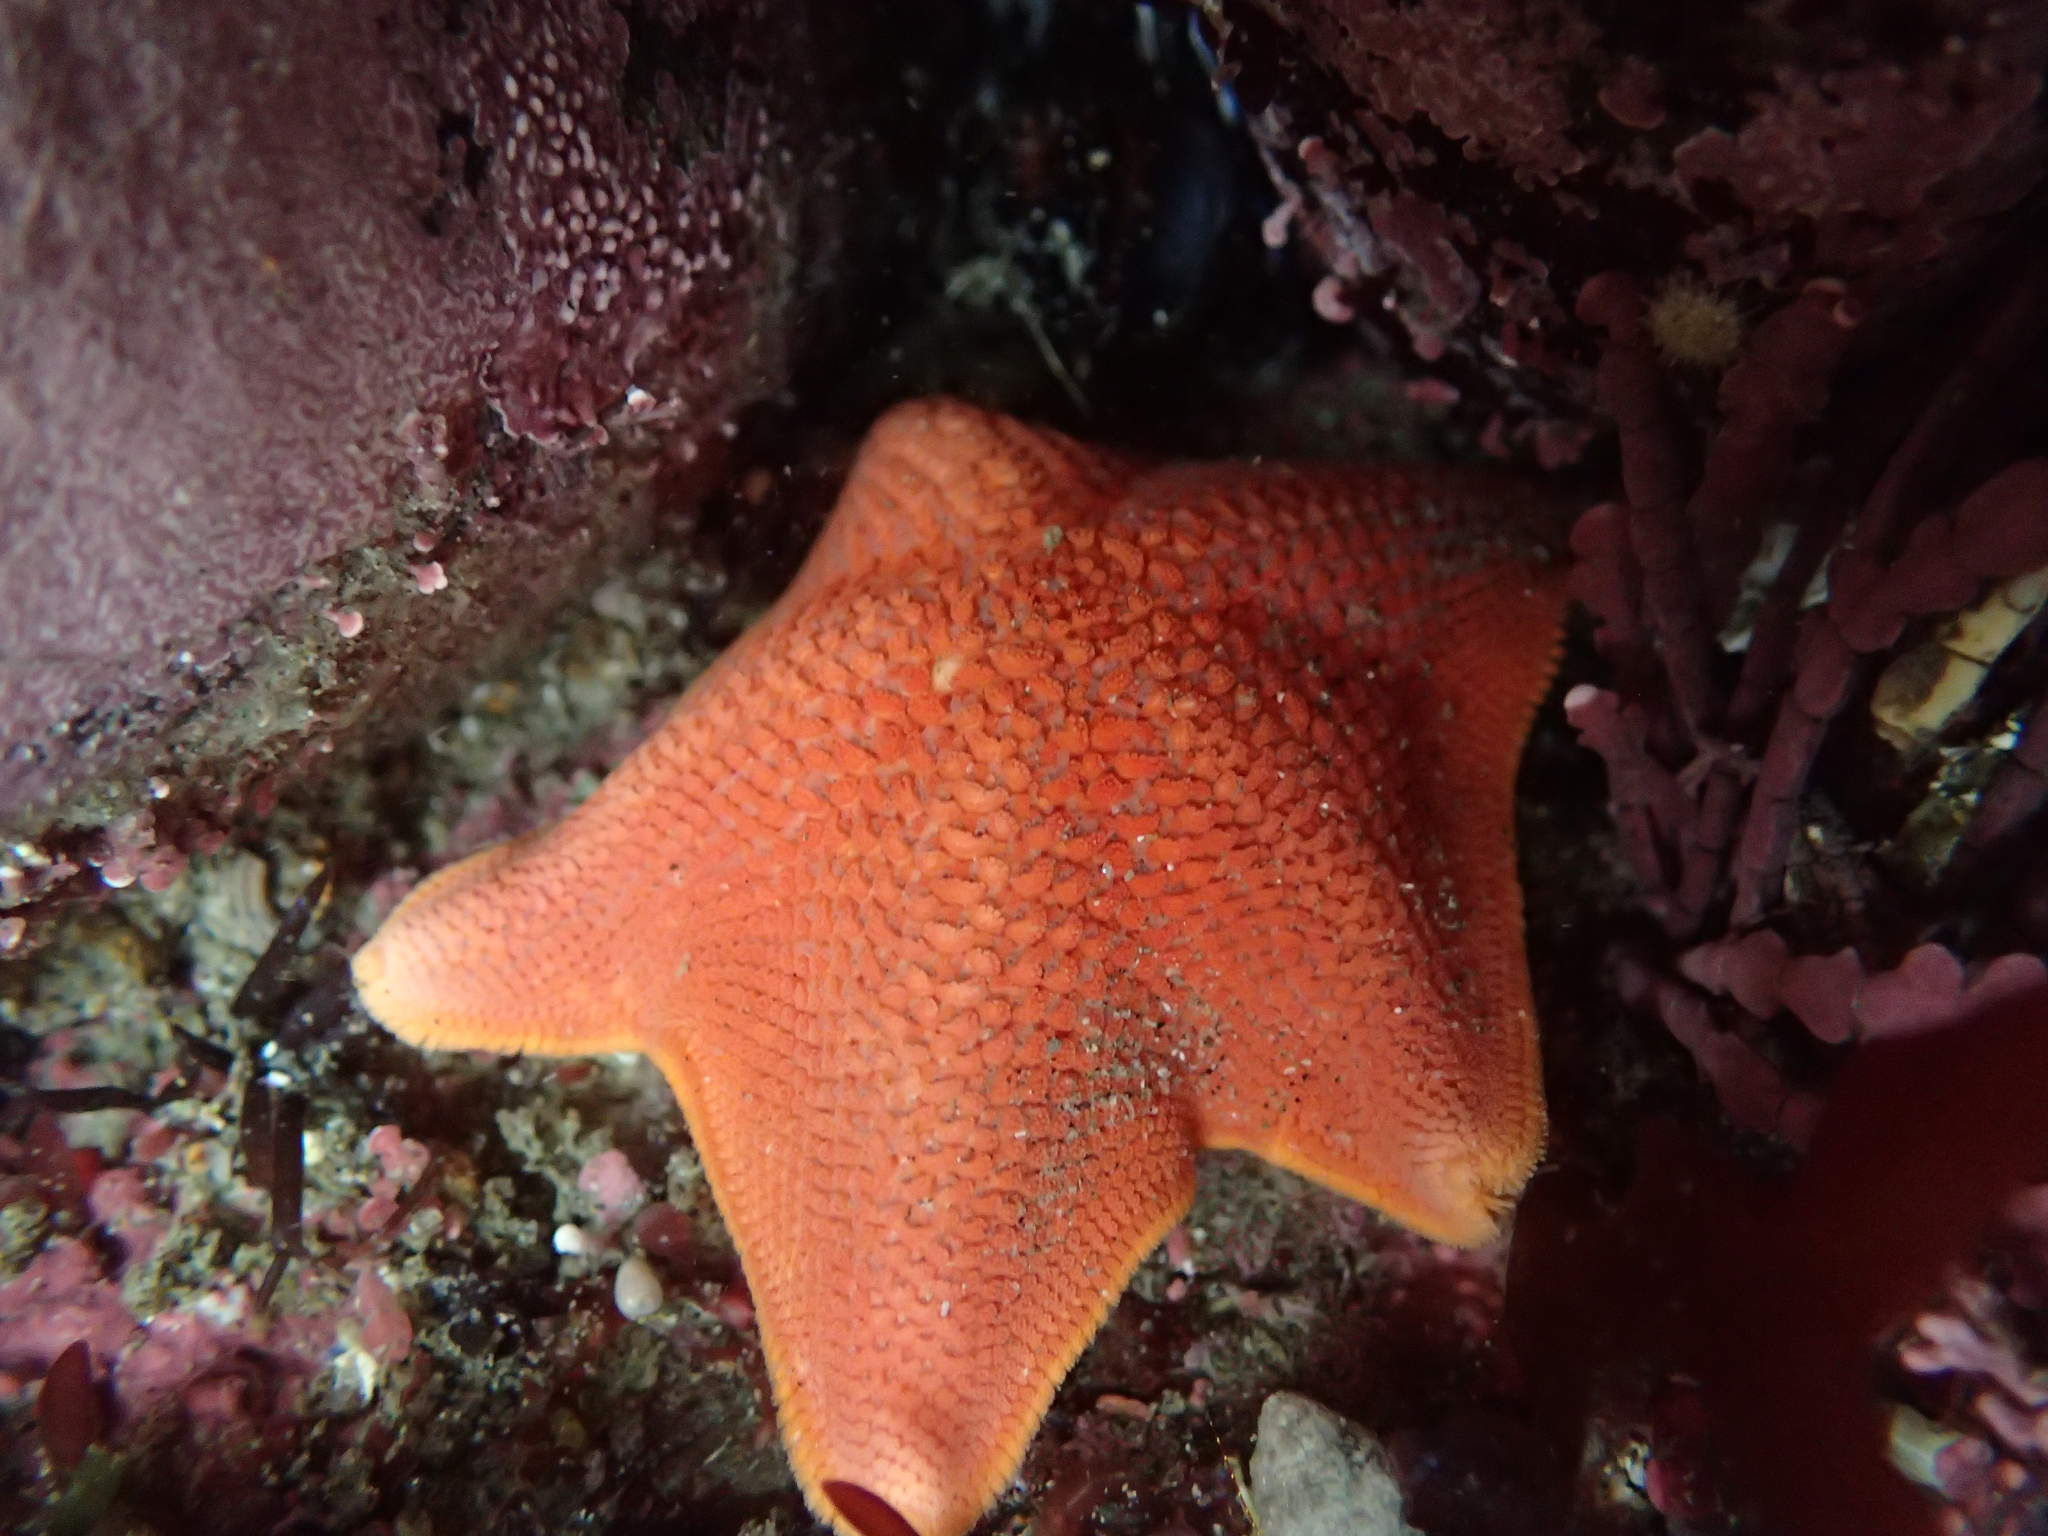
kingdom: Animalia
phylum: Echinodermata
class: Asteroidea
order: Valvatida
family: Asterinidae
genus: Patiria
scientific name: Patiria miniata
